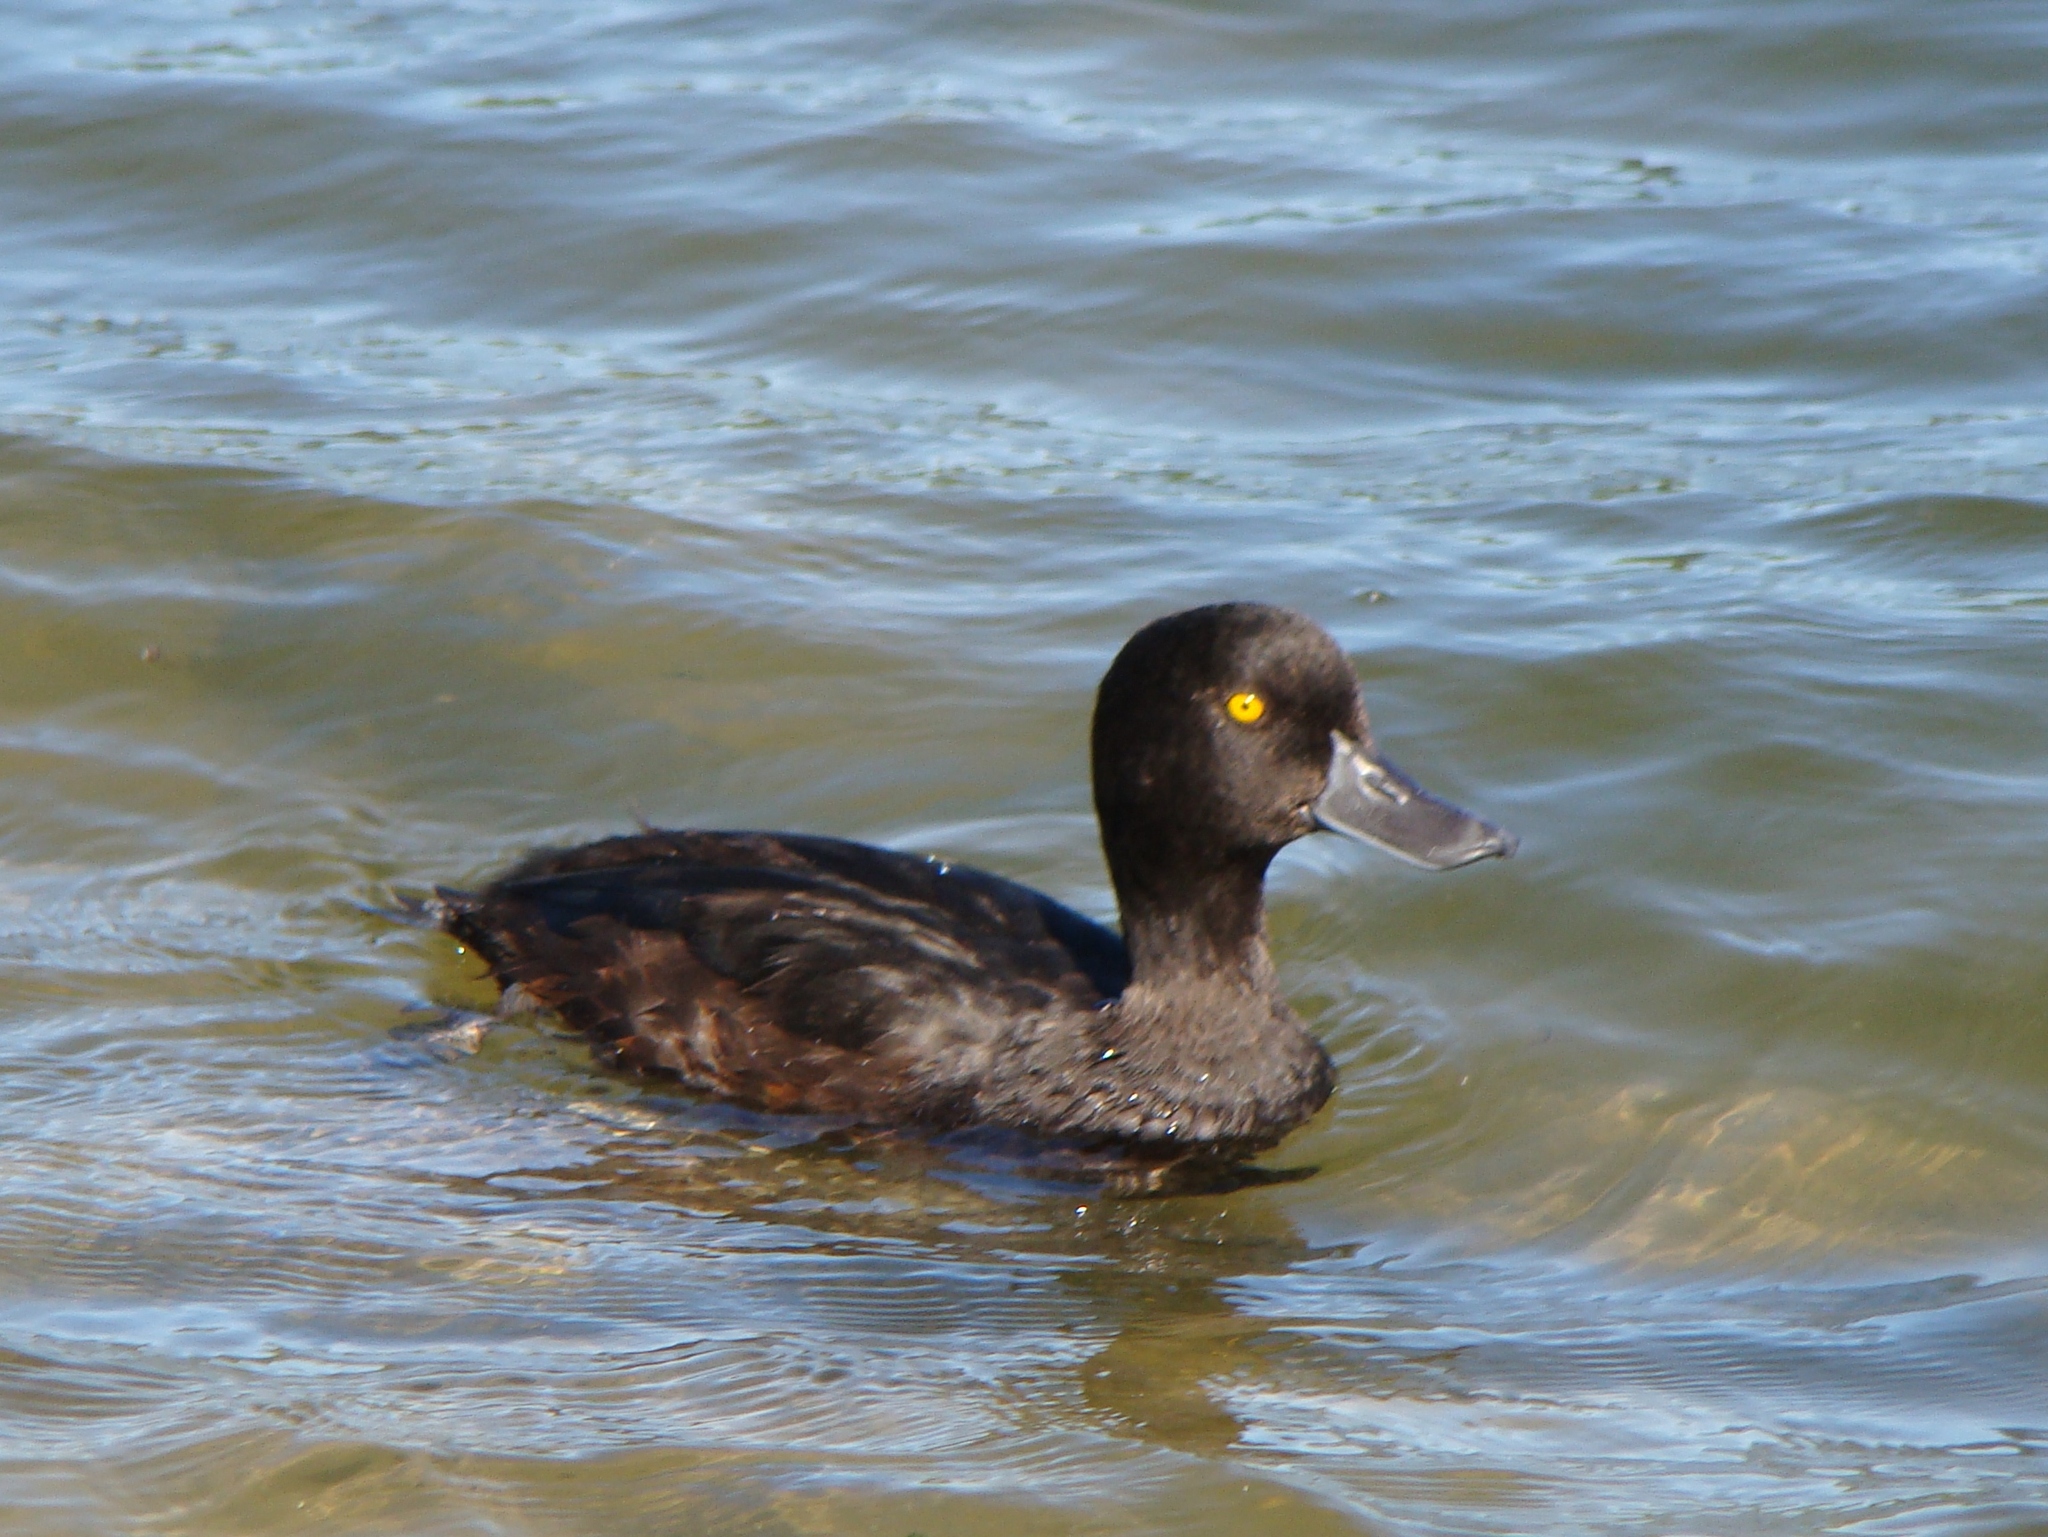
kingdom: Animalia
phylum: Chordata
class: Aves
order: Anseriformes
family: Anatidae
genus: Aythya
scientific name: Aythya novaeseelandiae
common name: New zealand scaup
